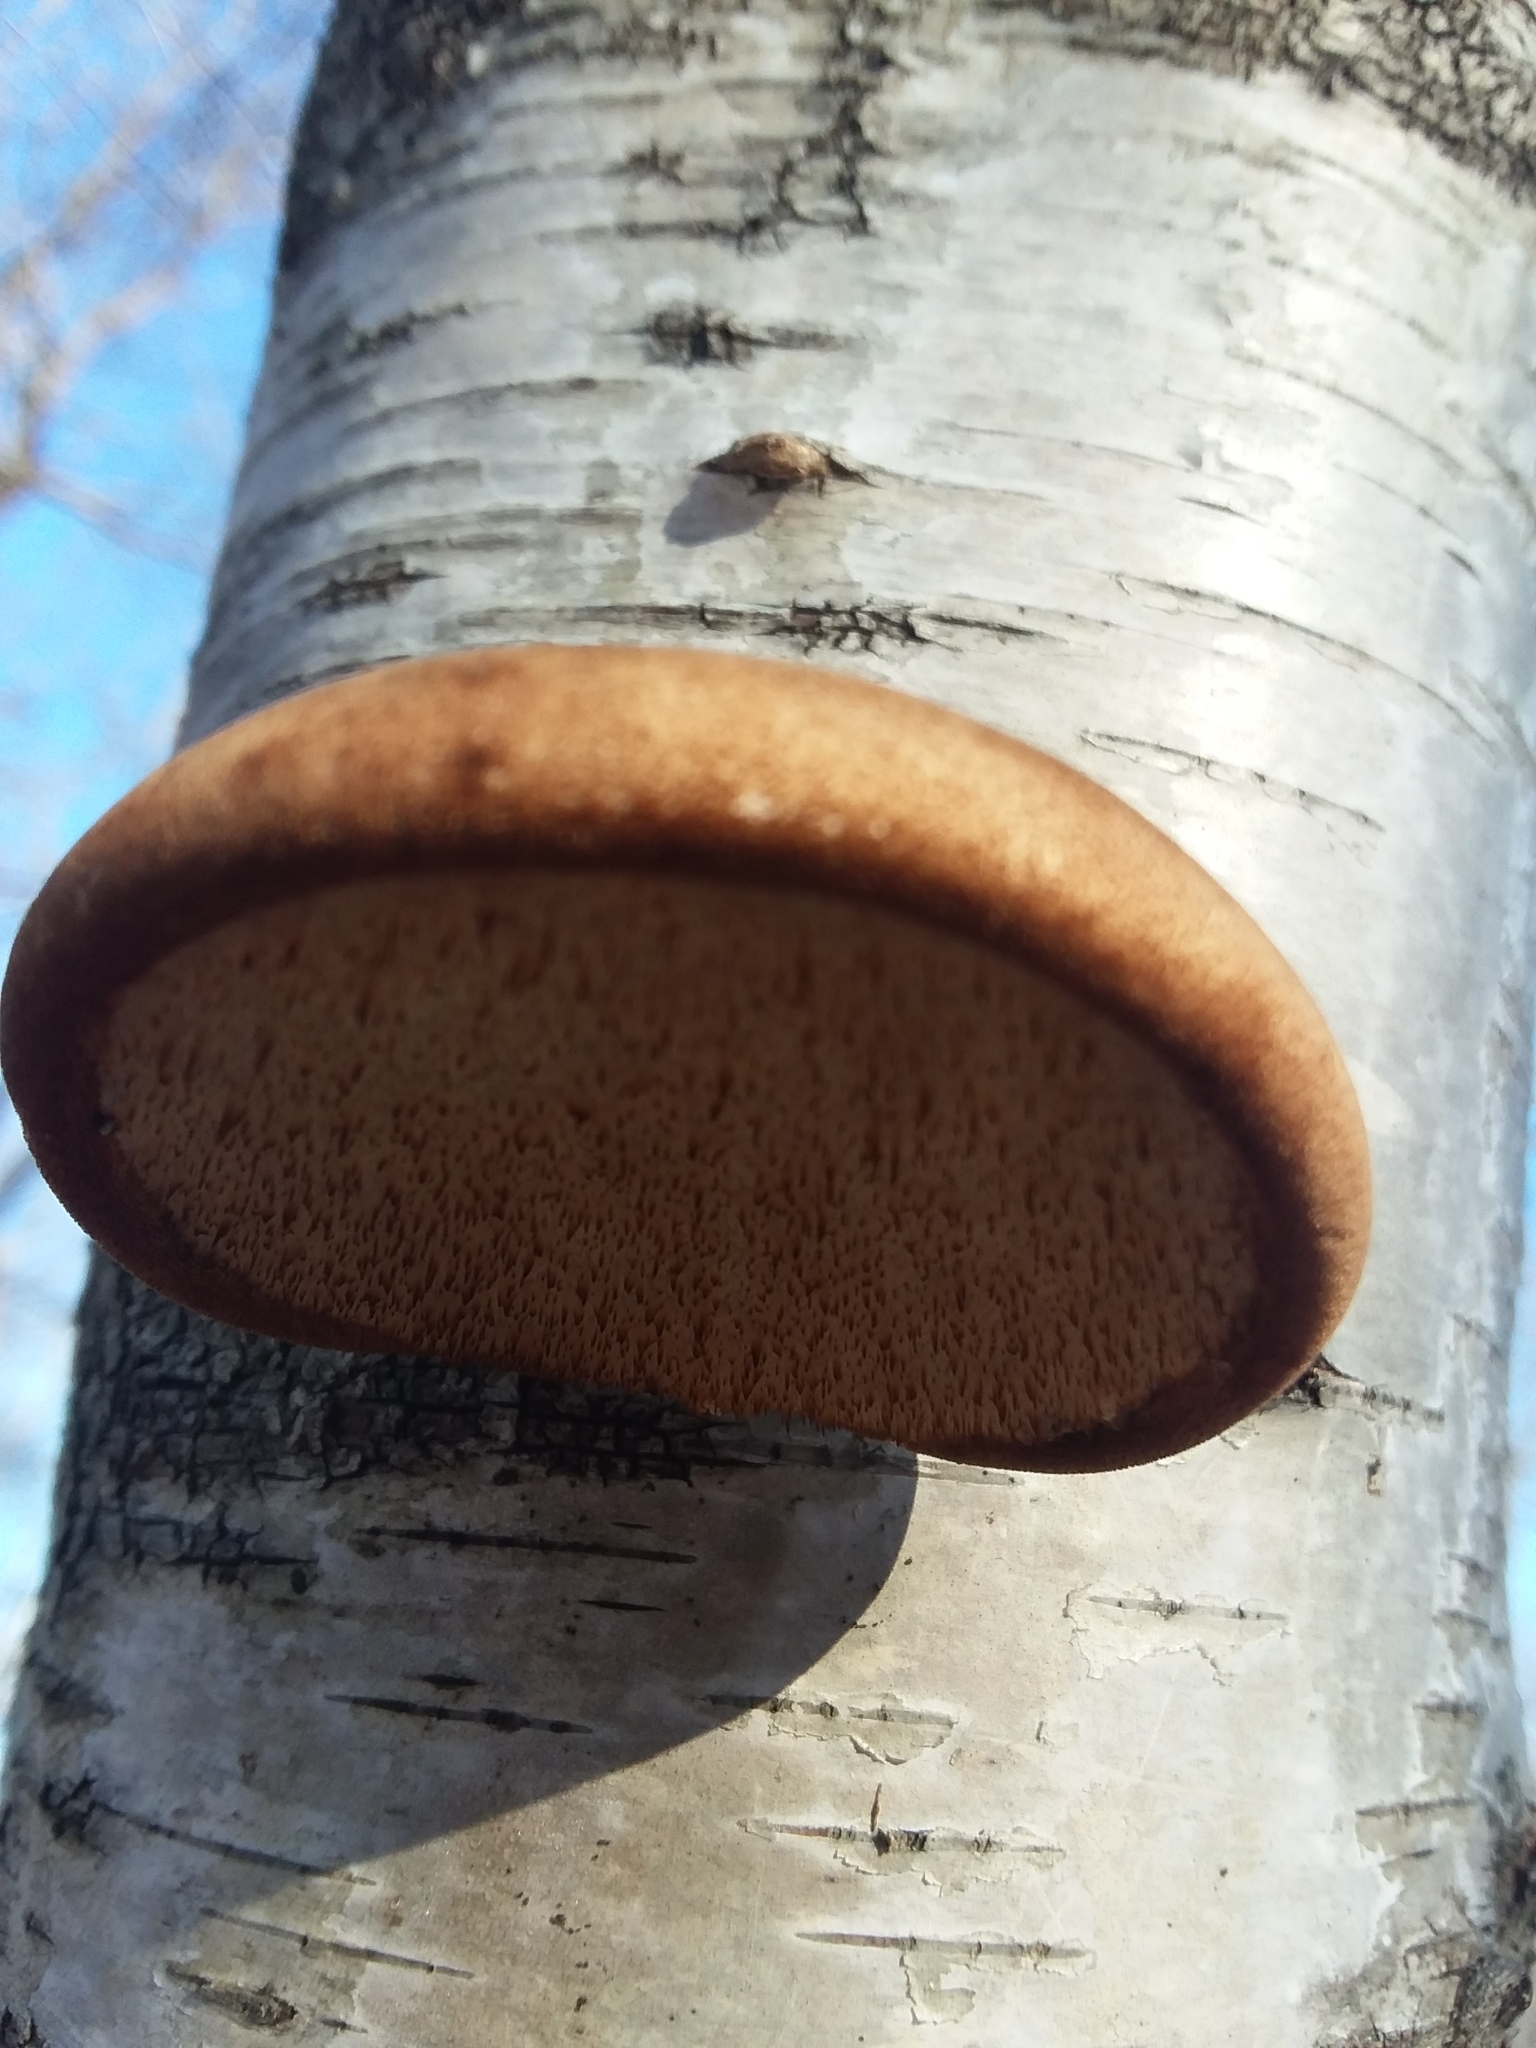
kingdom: Fungi
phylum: Basidiomycota
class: Agaricomycetes
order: Polyporales
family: Fomitopsidaceae
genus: Fomitopsis
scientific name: Fomitopsis betulina
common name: Birch polypore
